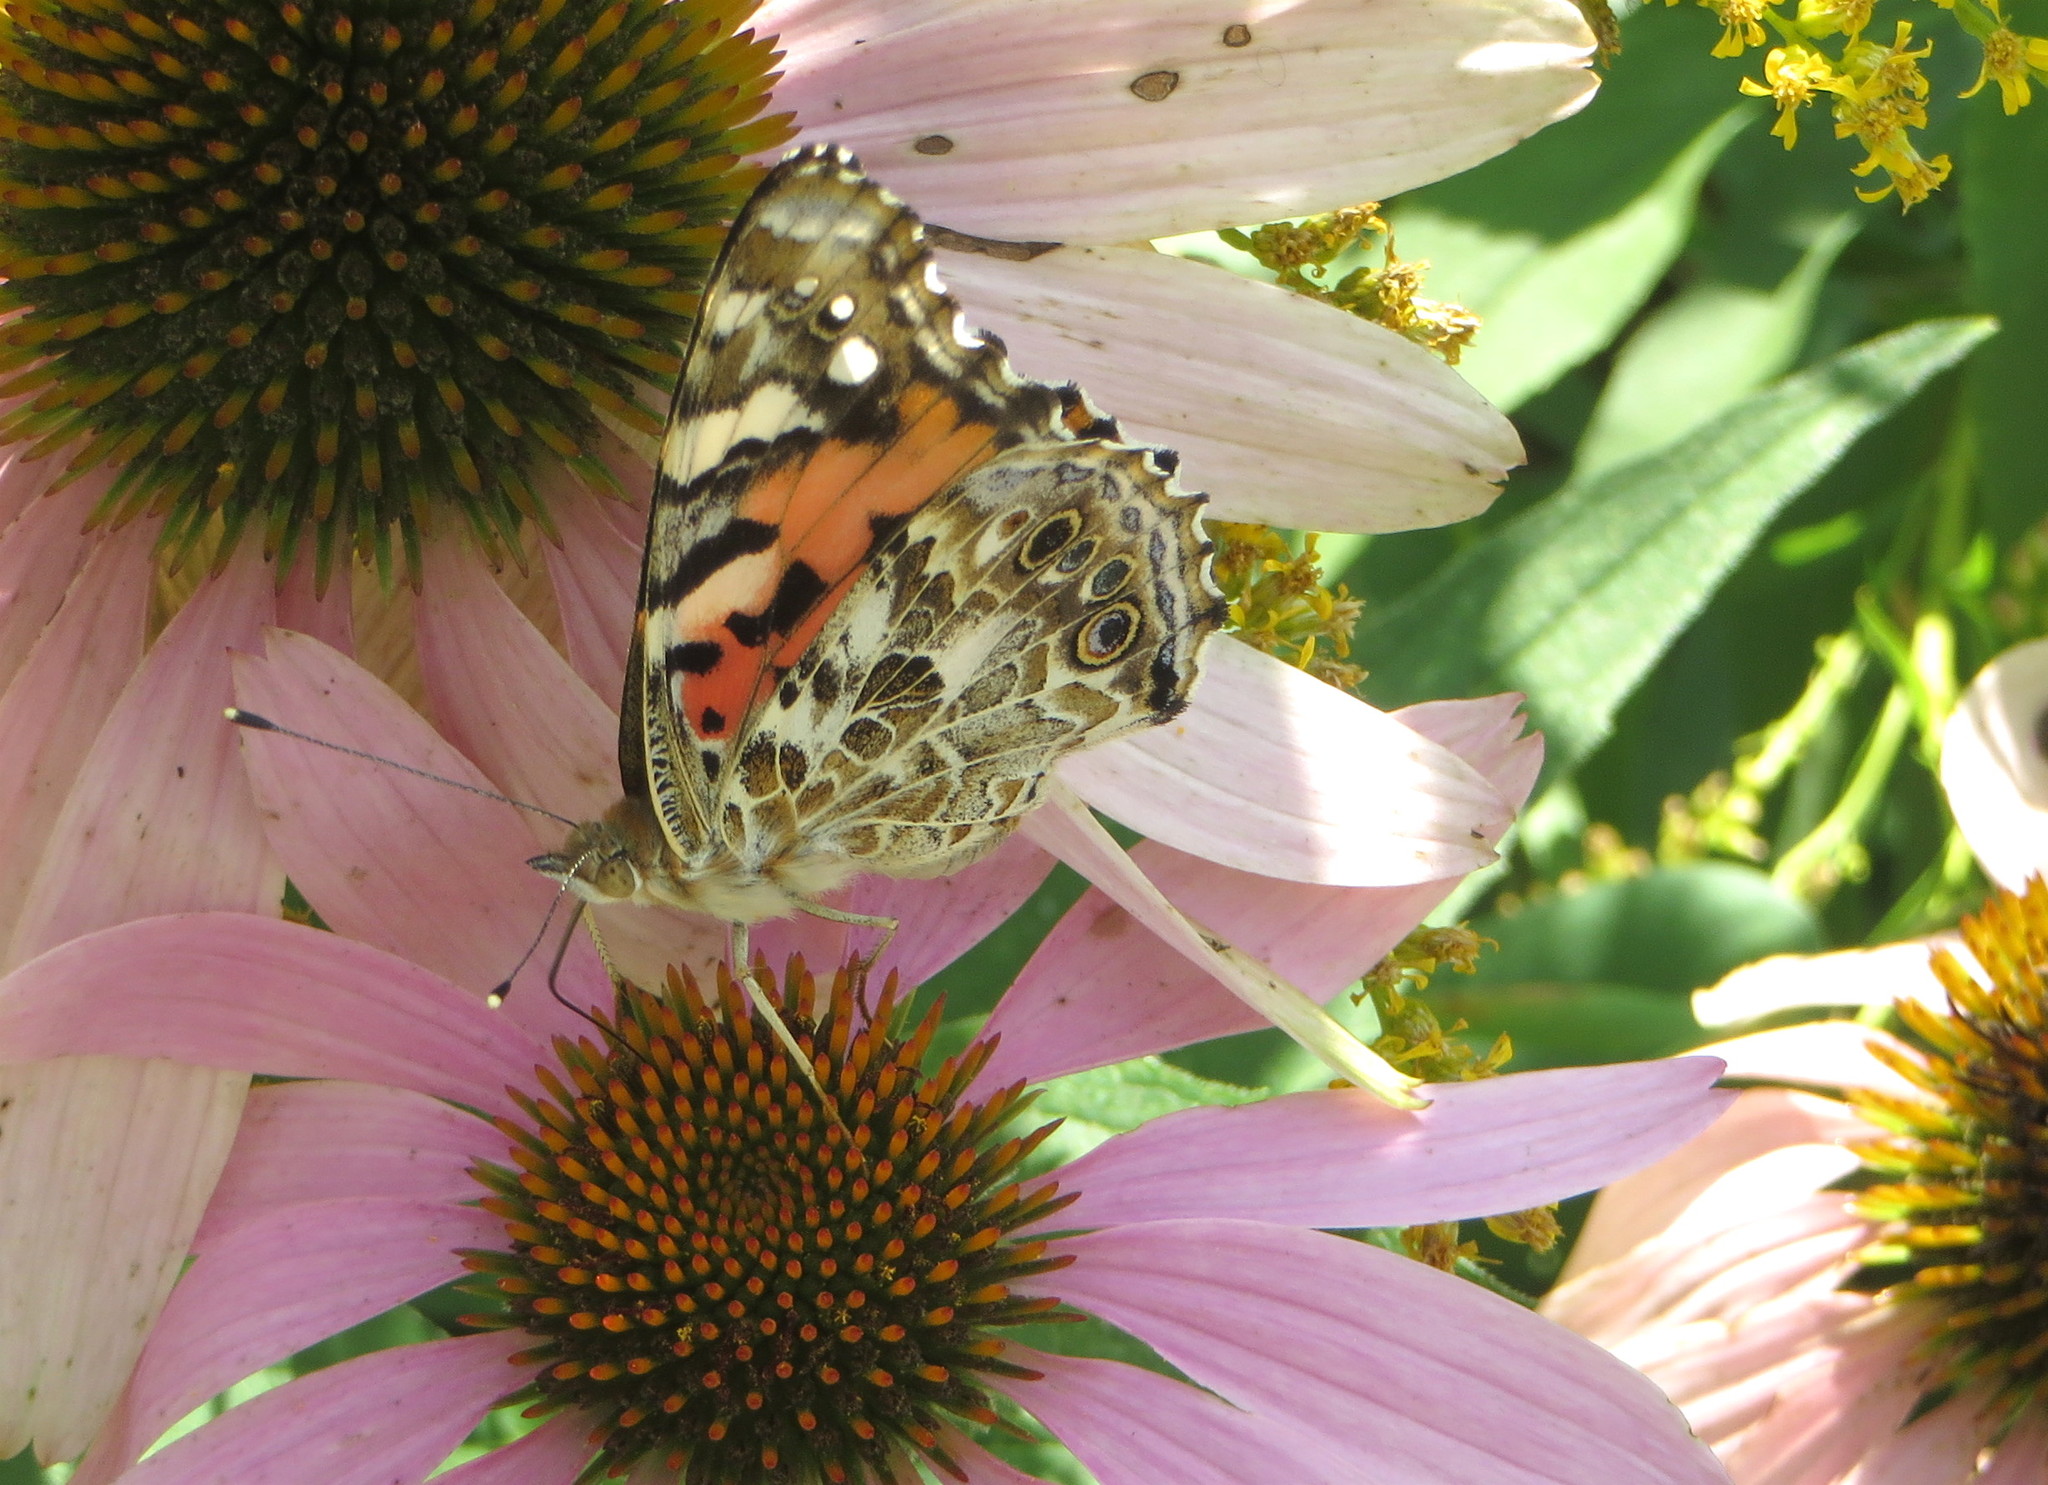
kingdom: Animalia
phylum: Arthropoda
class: Insecta
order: Lepidoptera
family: Nymphalidae
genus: Vanessa
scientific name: Vanessa cardui
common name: Painted lady
